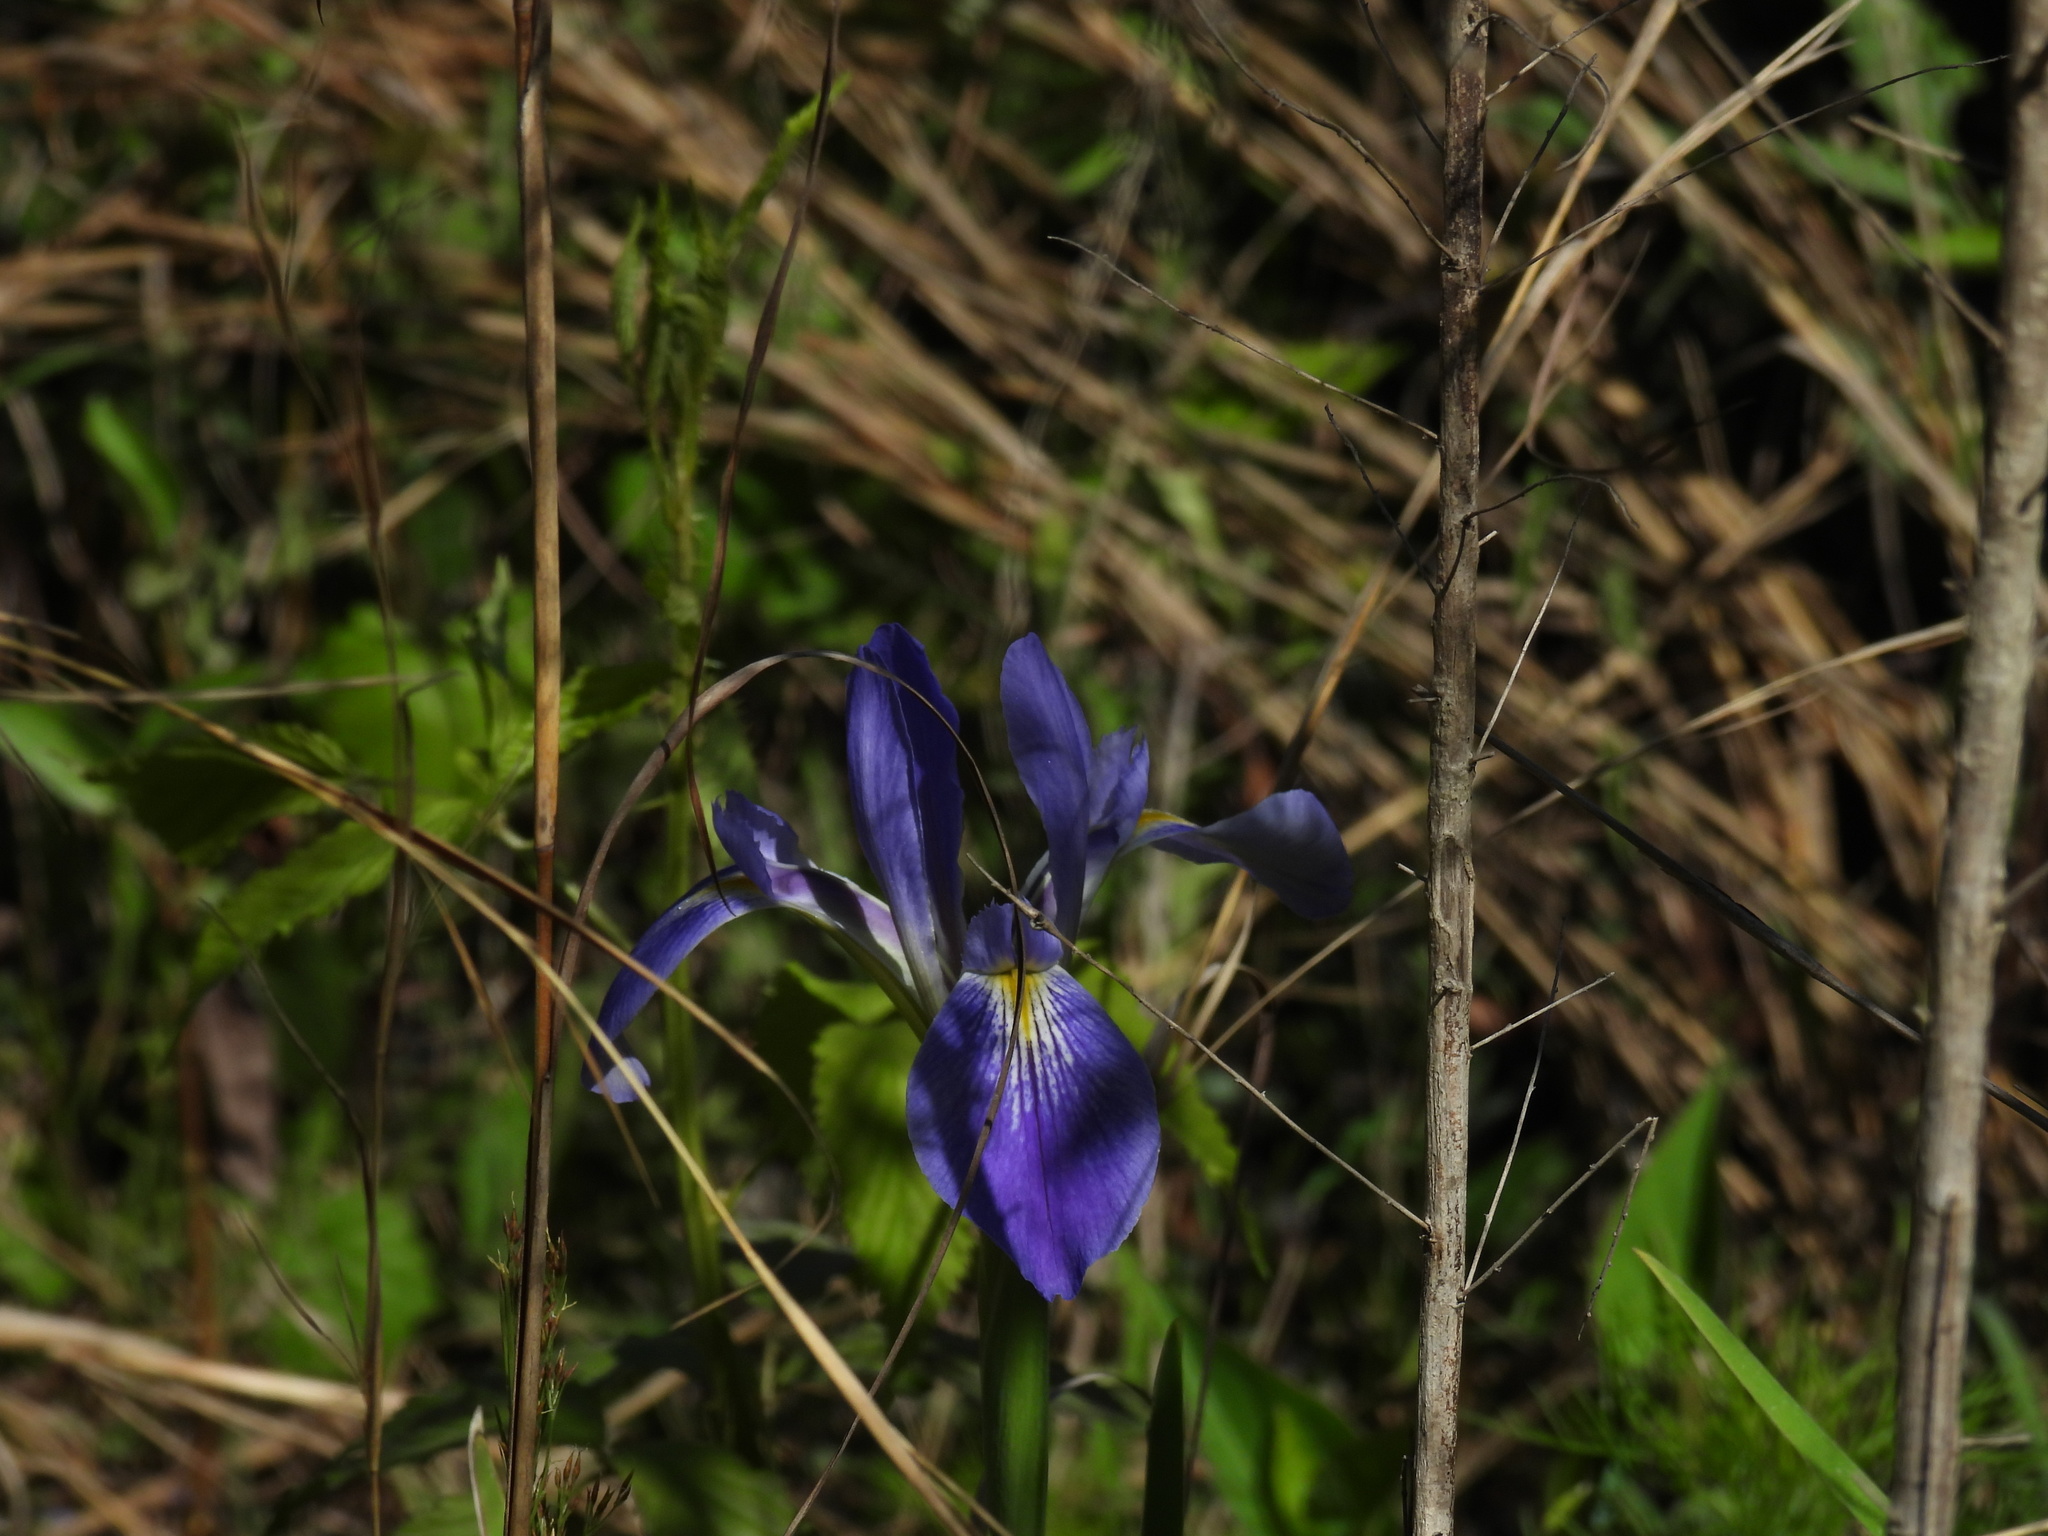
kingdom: Plantae
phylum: Tracheophyta
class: Liliopsida
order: Asparagales
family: Iridaceae
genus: Iris
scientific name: Iris savannarum
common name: Prairie iris
